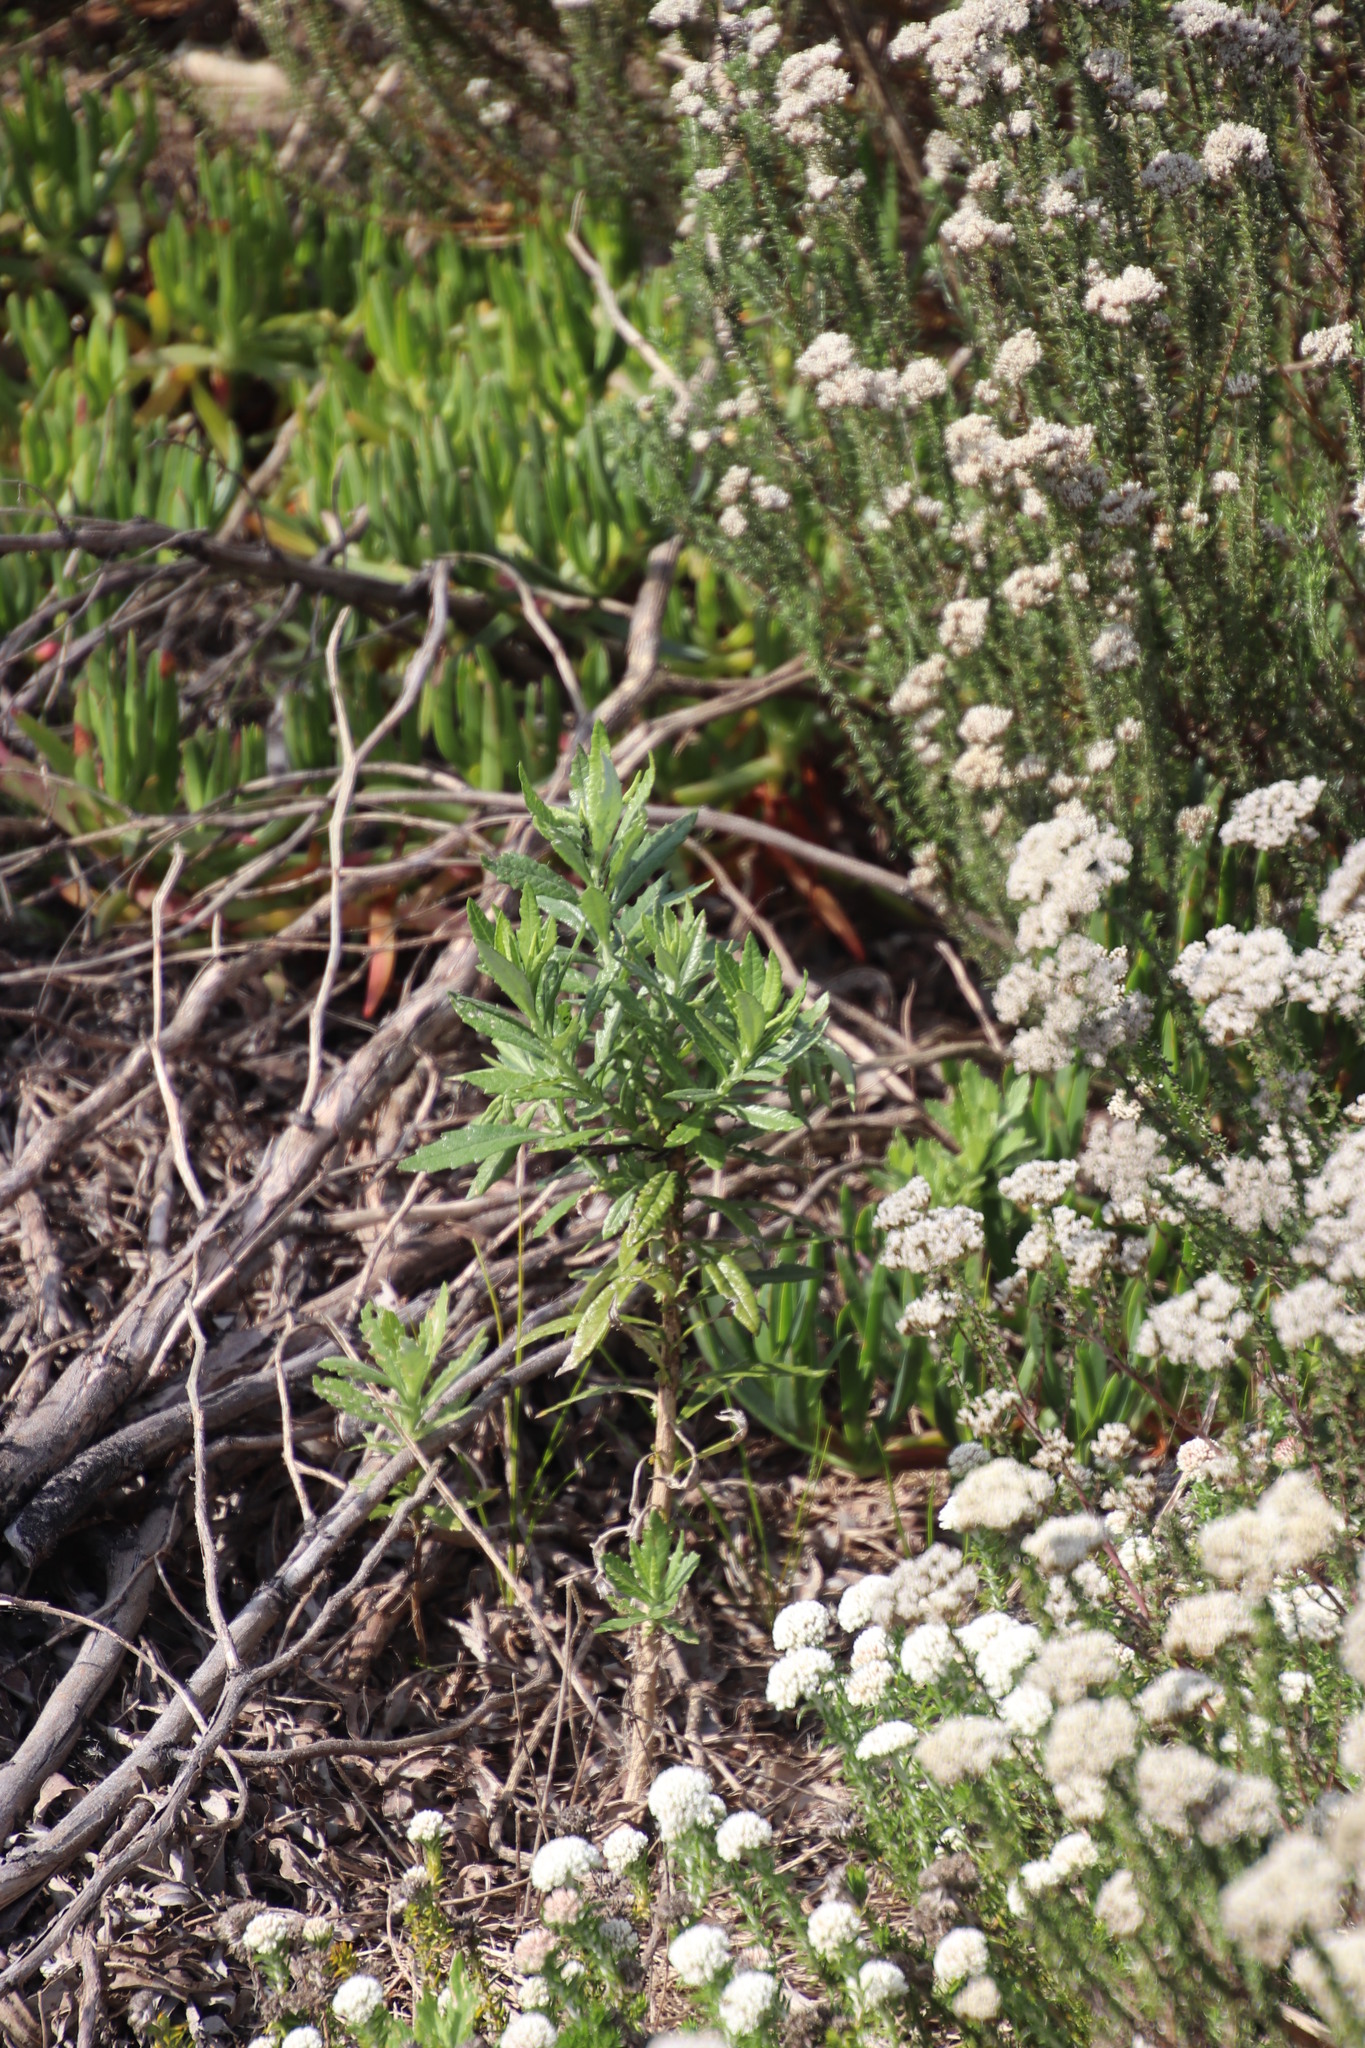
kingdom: Plantae
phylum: Tracheophyta
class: Magnoliopsida
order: Asterales
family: Asteraceae
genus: Senecio
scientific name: Senecio pterophorus
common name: Shoddy ragwort
